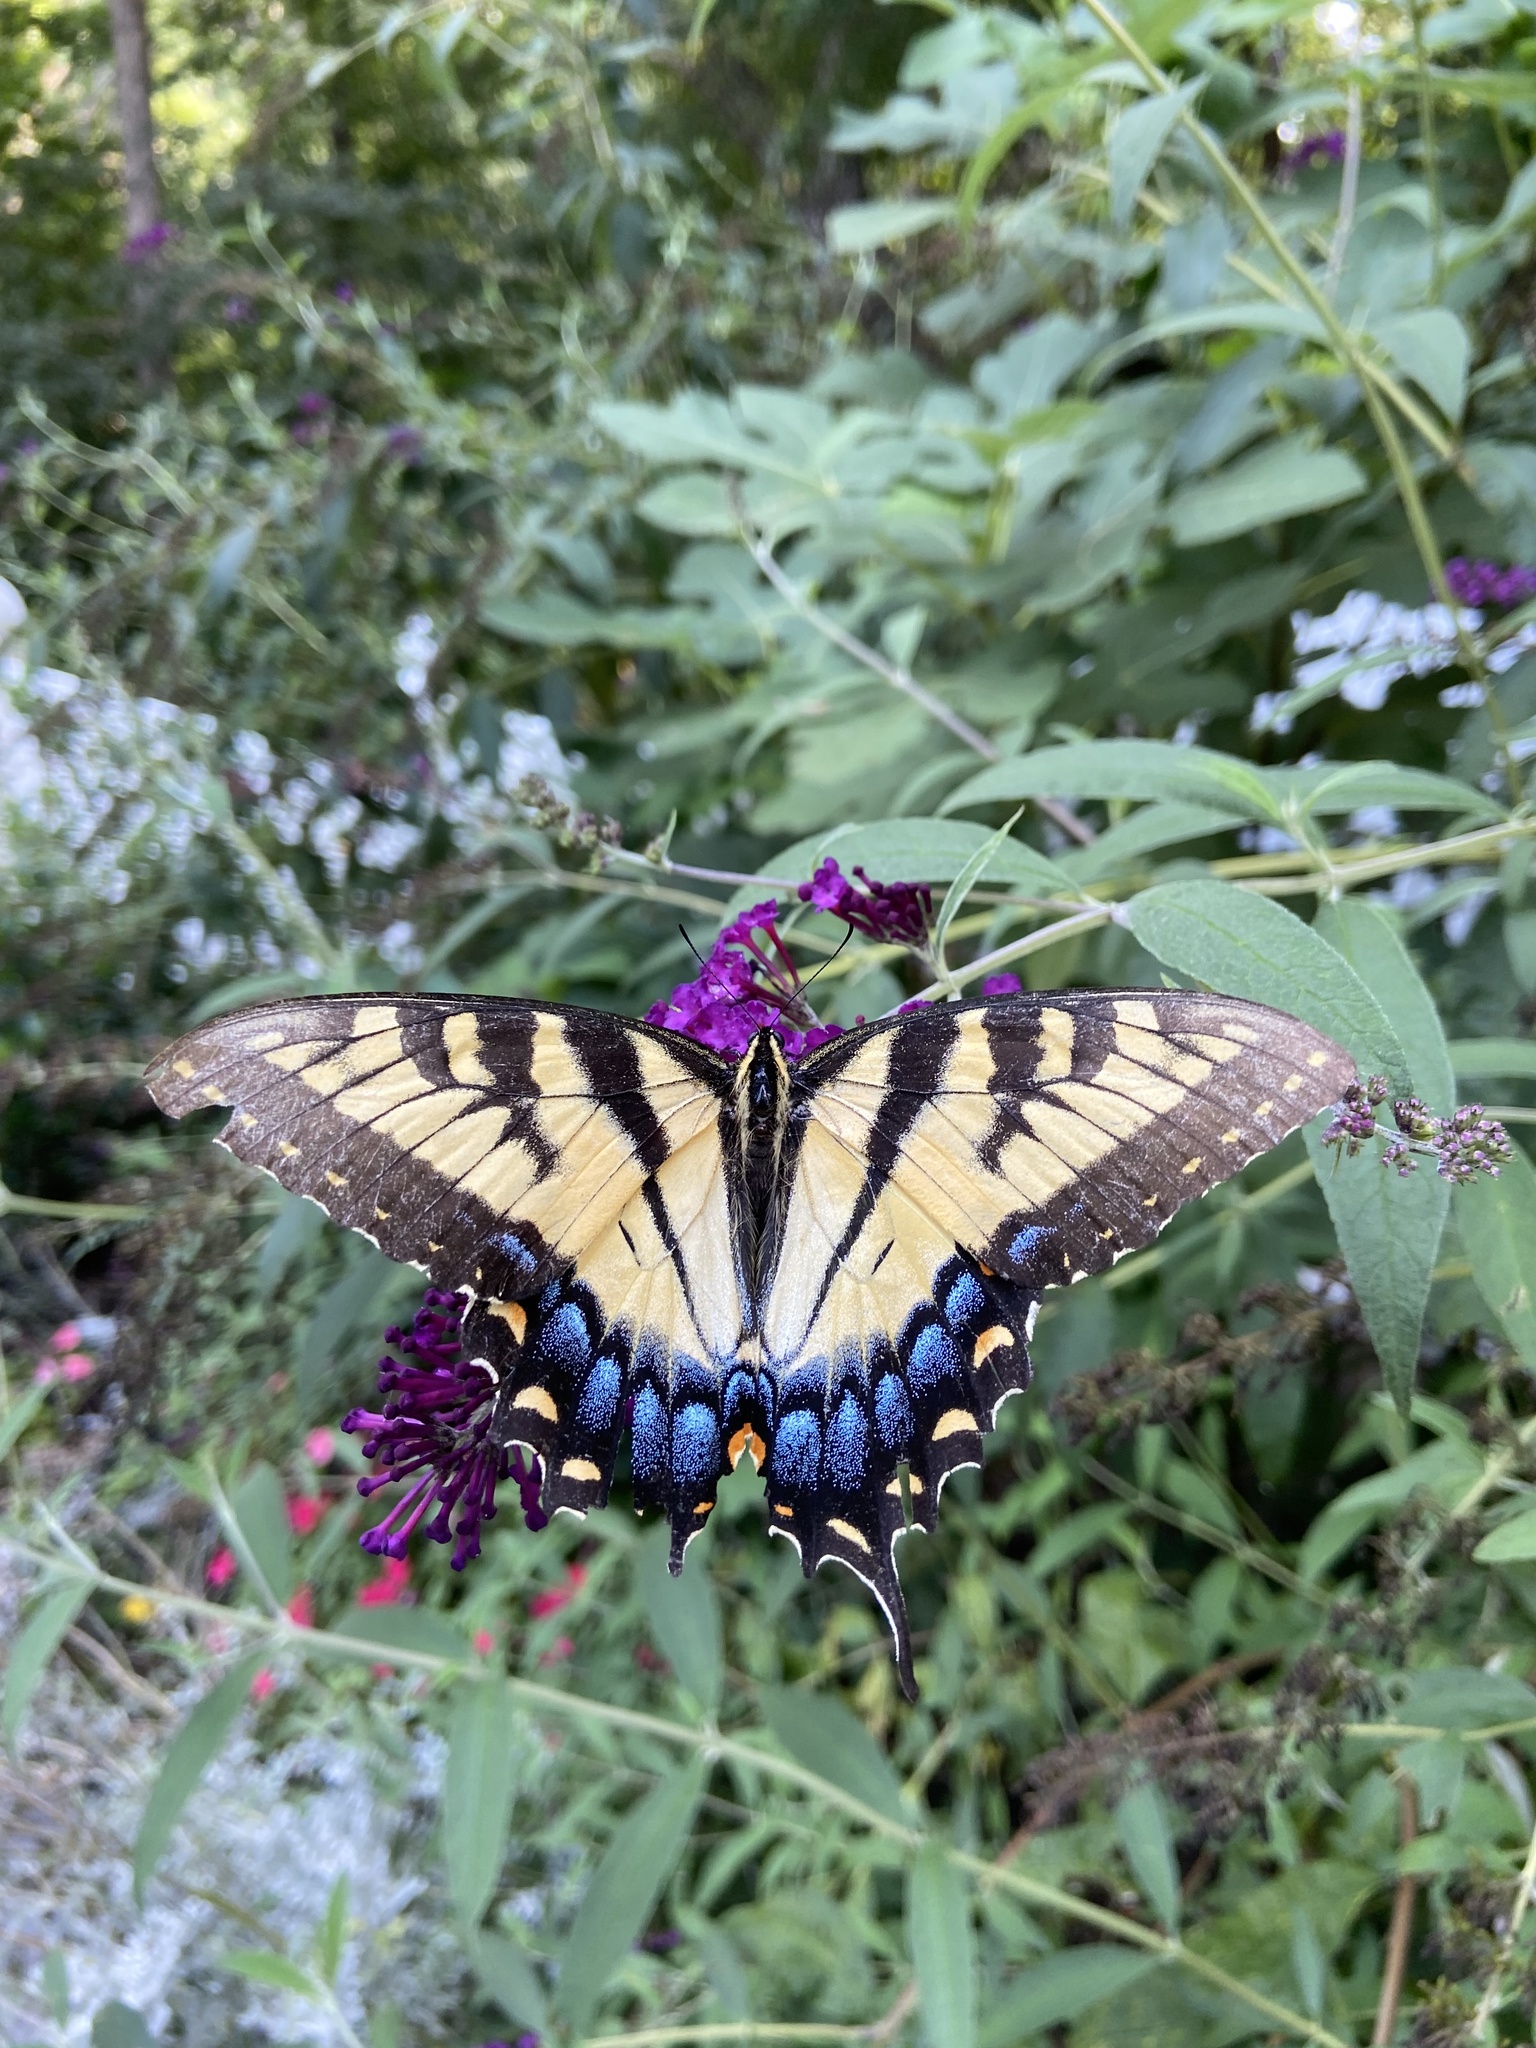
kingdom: Animalia
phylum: Arthropoda
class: Insecta
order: Lepidoptera
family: Papilionidae
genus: Papilio
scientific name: Papilio glaucus
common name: Tiger swallowtail
